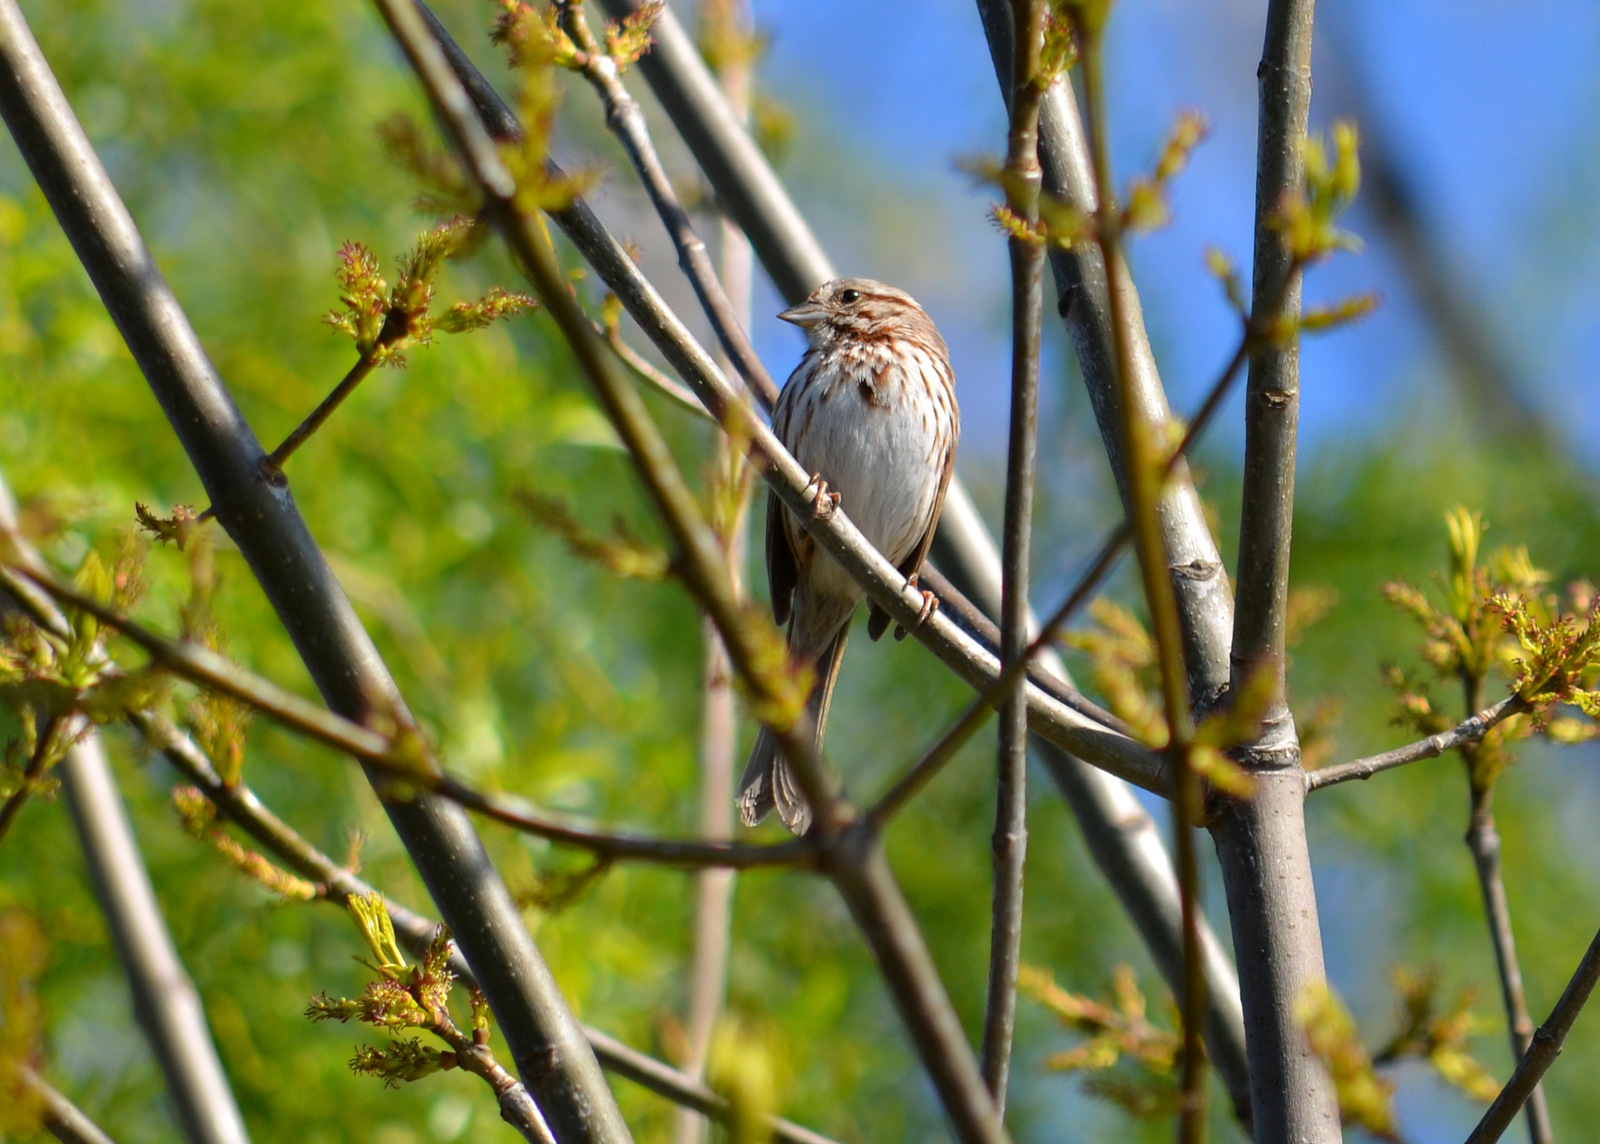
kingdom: Animalia
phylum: Chordata
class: Aves
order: Passeriformes
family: Passerellidae
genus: Melospiza
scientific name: Melospiza melodia
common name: Song sparrow
